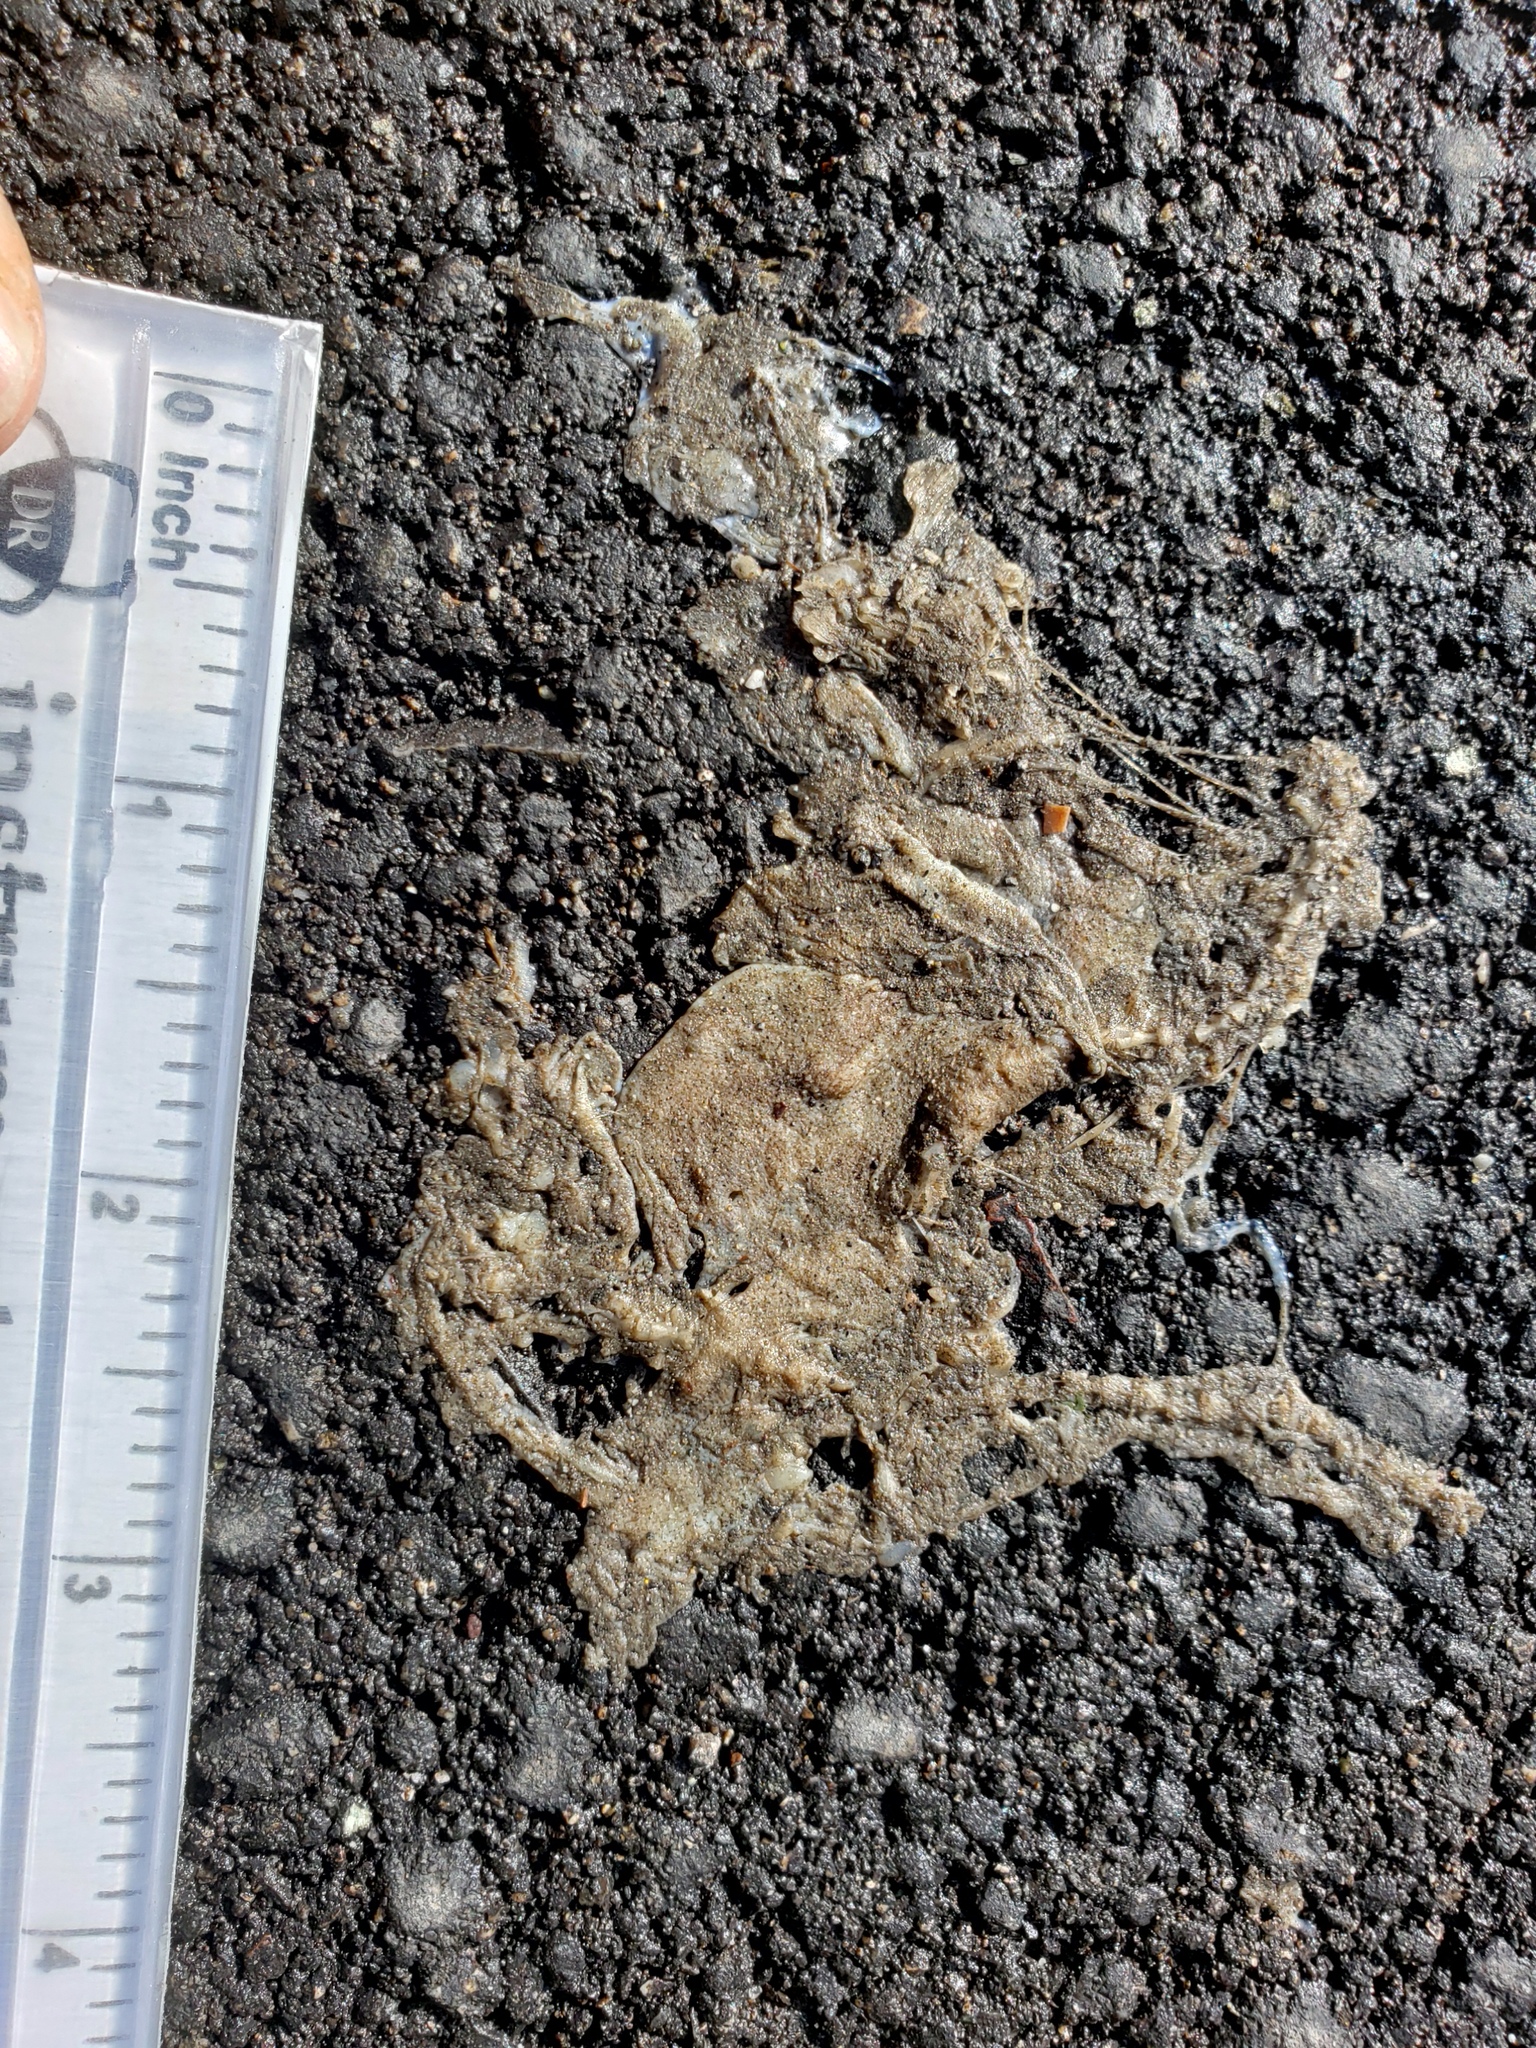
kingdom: Animalia
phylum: Chordata
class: Amphibia
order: Caudata
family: Salamandridae
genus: Taricha
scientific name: Taricha
